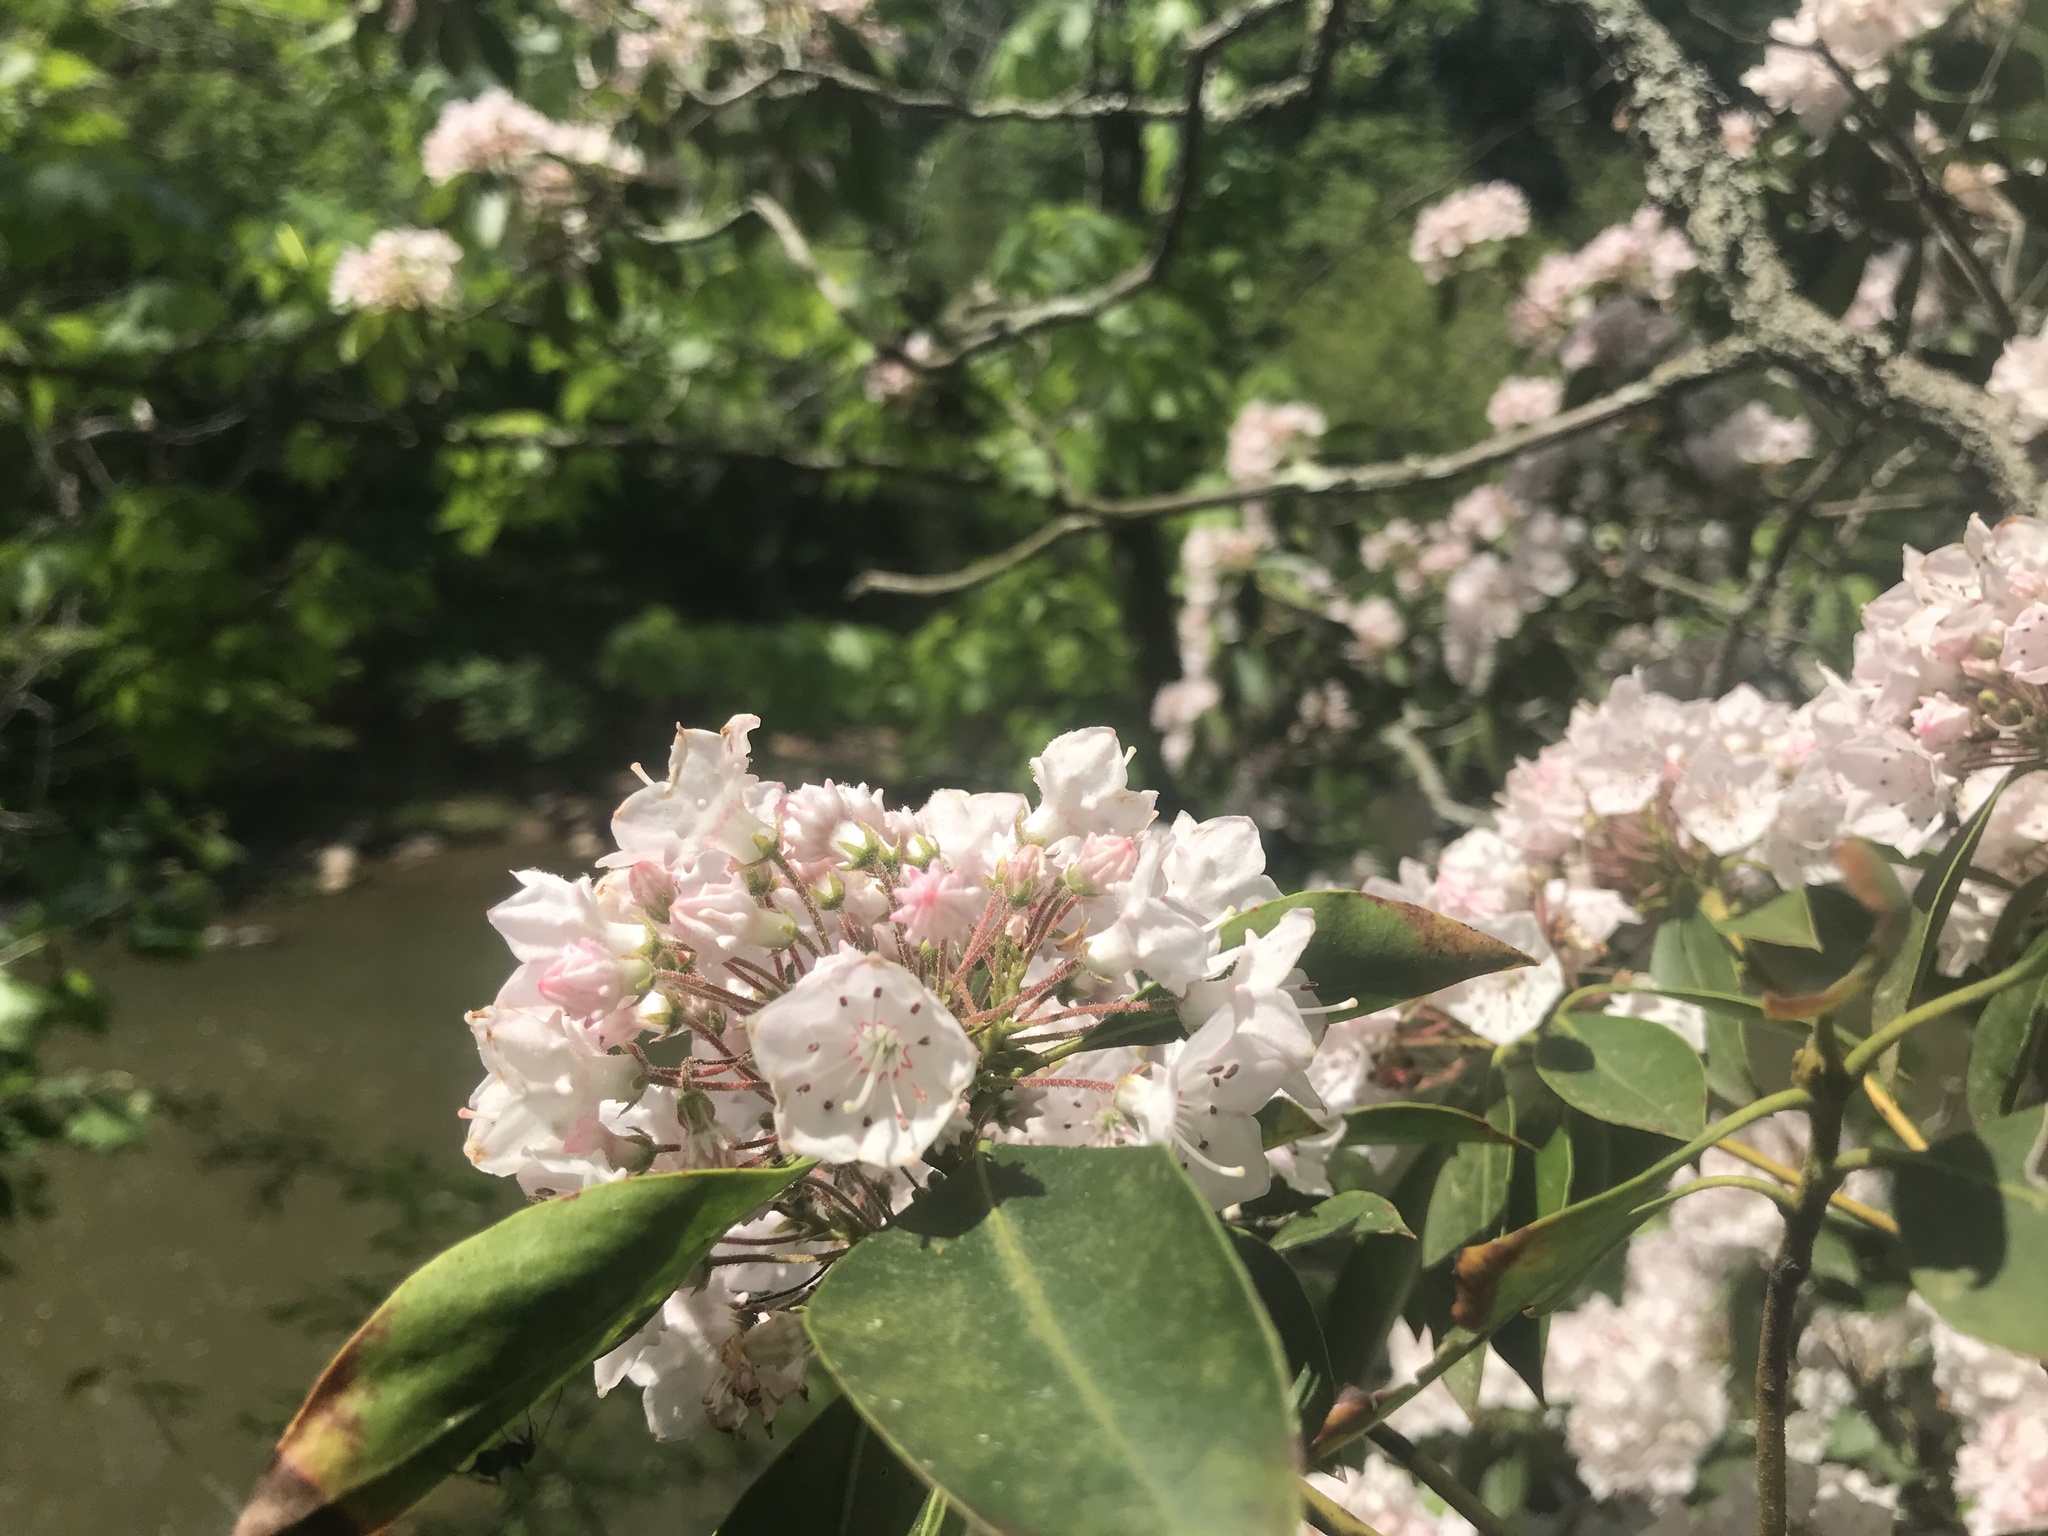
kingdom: Plantae
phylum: Tracheophyta
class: Magnoliopsida
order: Ericales
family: Ericaceae
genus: Kalmia
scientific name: Kalmia latifolia
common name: Mountain-laurel
